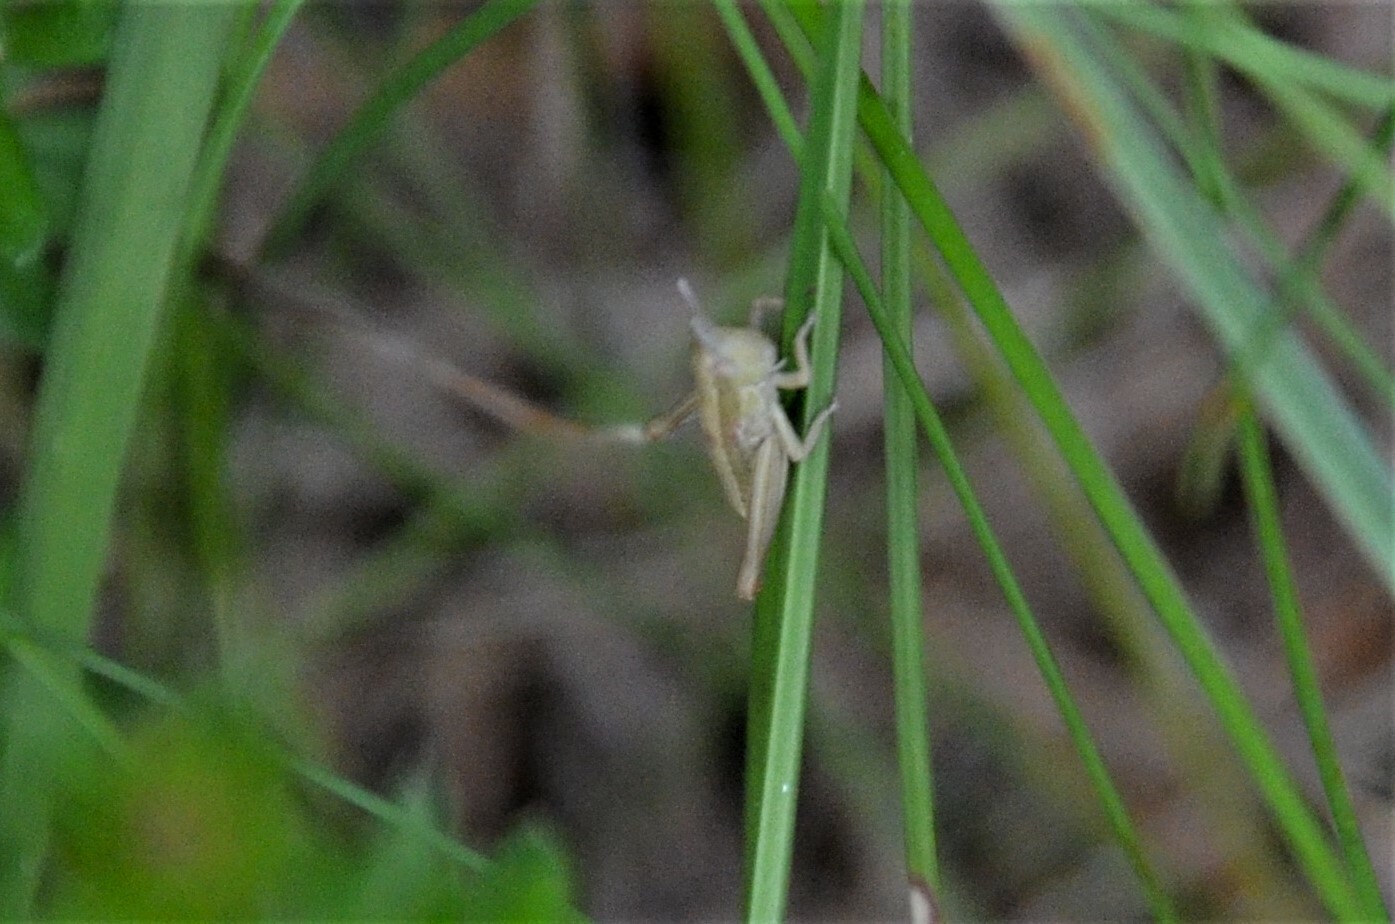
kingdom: Animalia
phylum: Arthropoda
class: Insecta
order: Orthoptera
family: Acrididae
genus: Euthystira
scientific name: Euthystira brachyptera
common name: Small gold grasshopper
